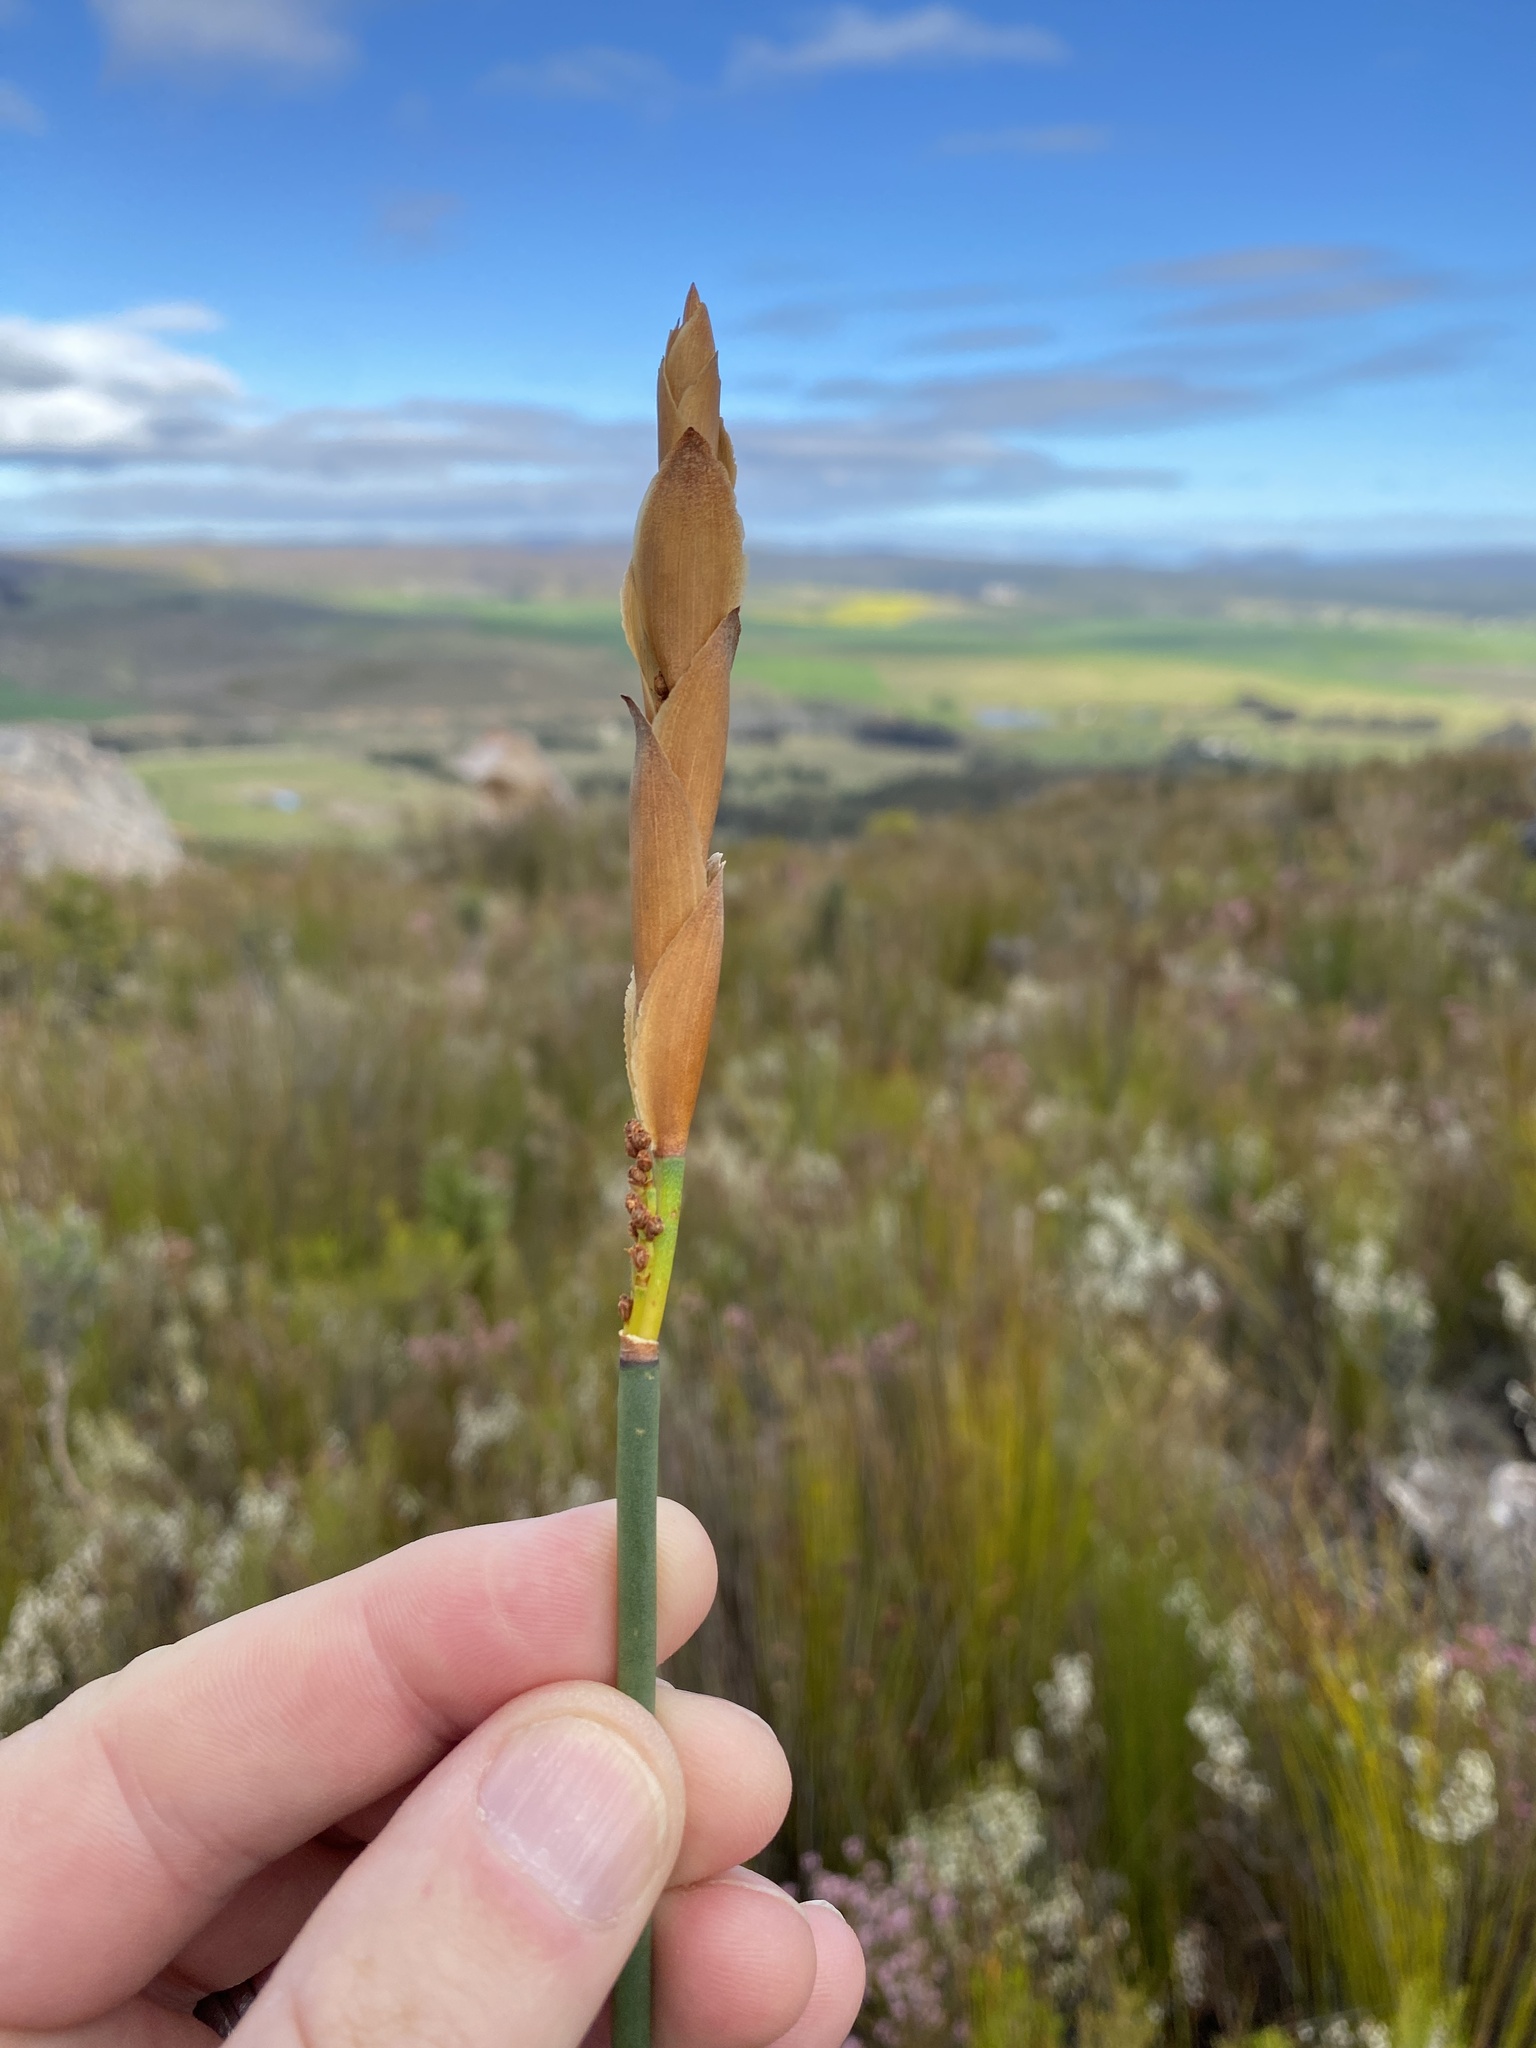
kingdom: Plantae
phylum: Tracheophyta
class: Liliopsida
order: Poales
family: Restionaceae
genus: Elegia
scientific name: Elegia persistens
